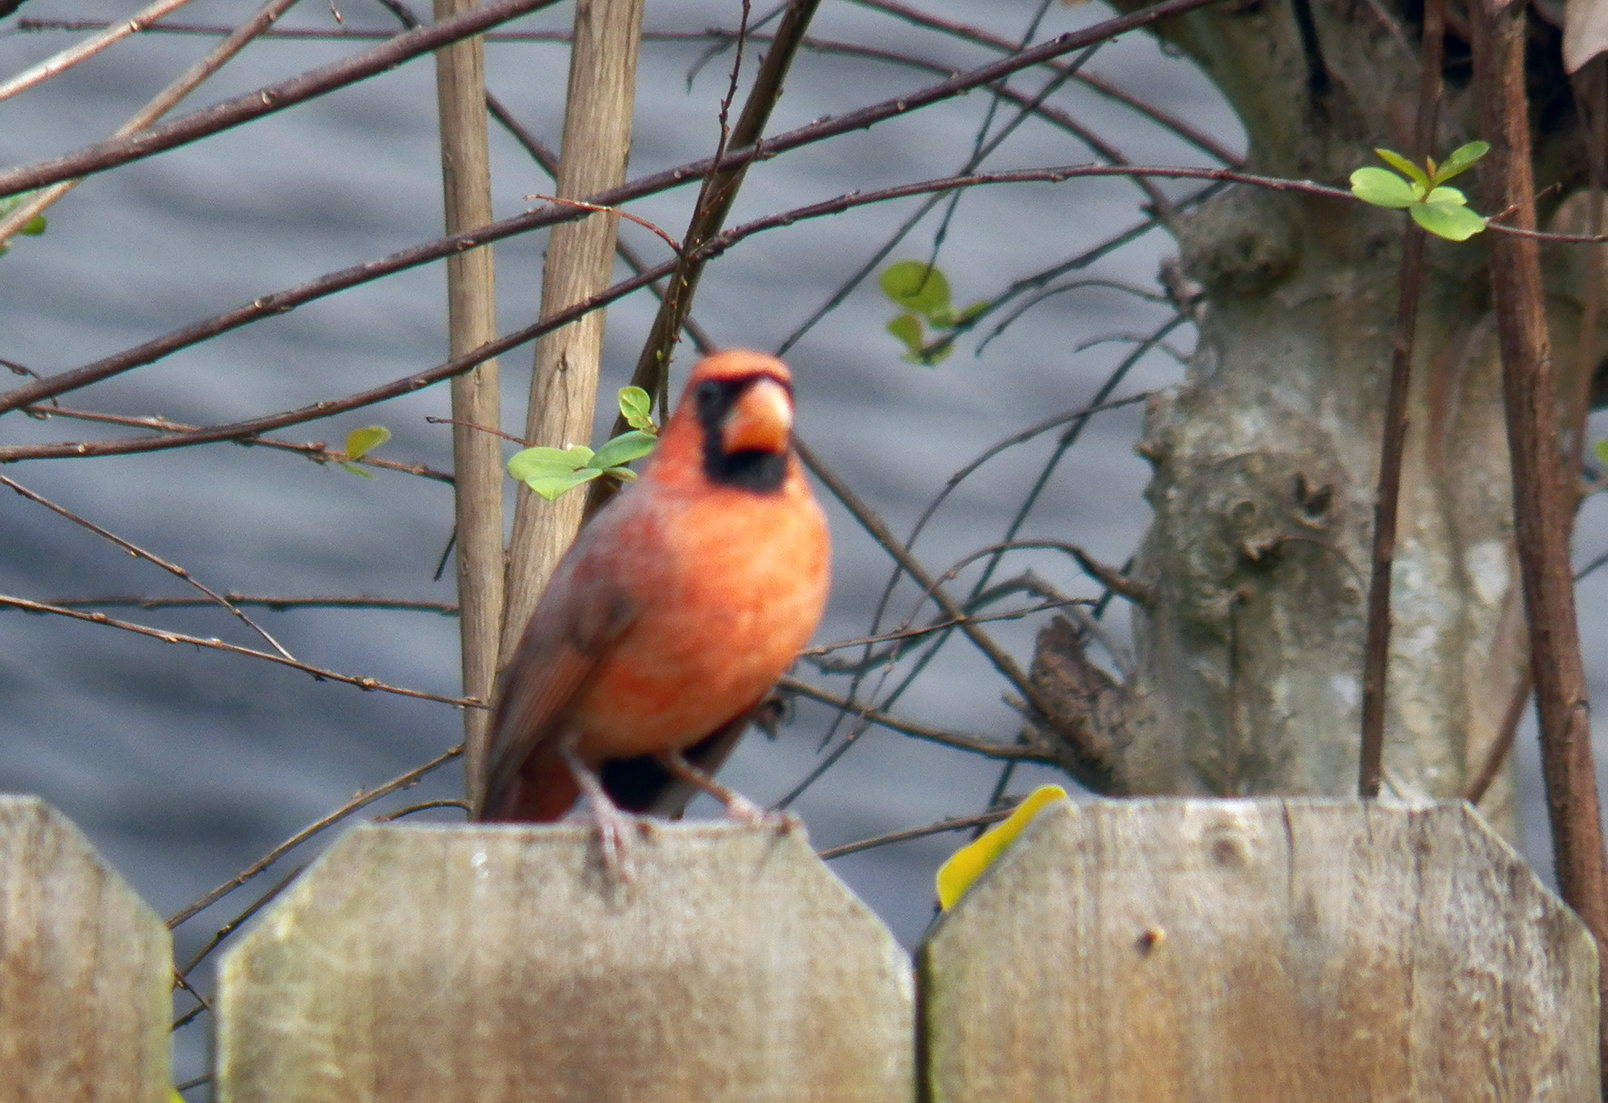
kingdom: Animalia
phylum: Chordata
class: Aves
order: Passeriformes
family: Cardinalidae
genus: Cardinalis
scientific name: Cardinalis cardinalis
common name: Northern cardinal
